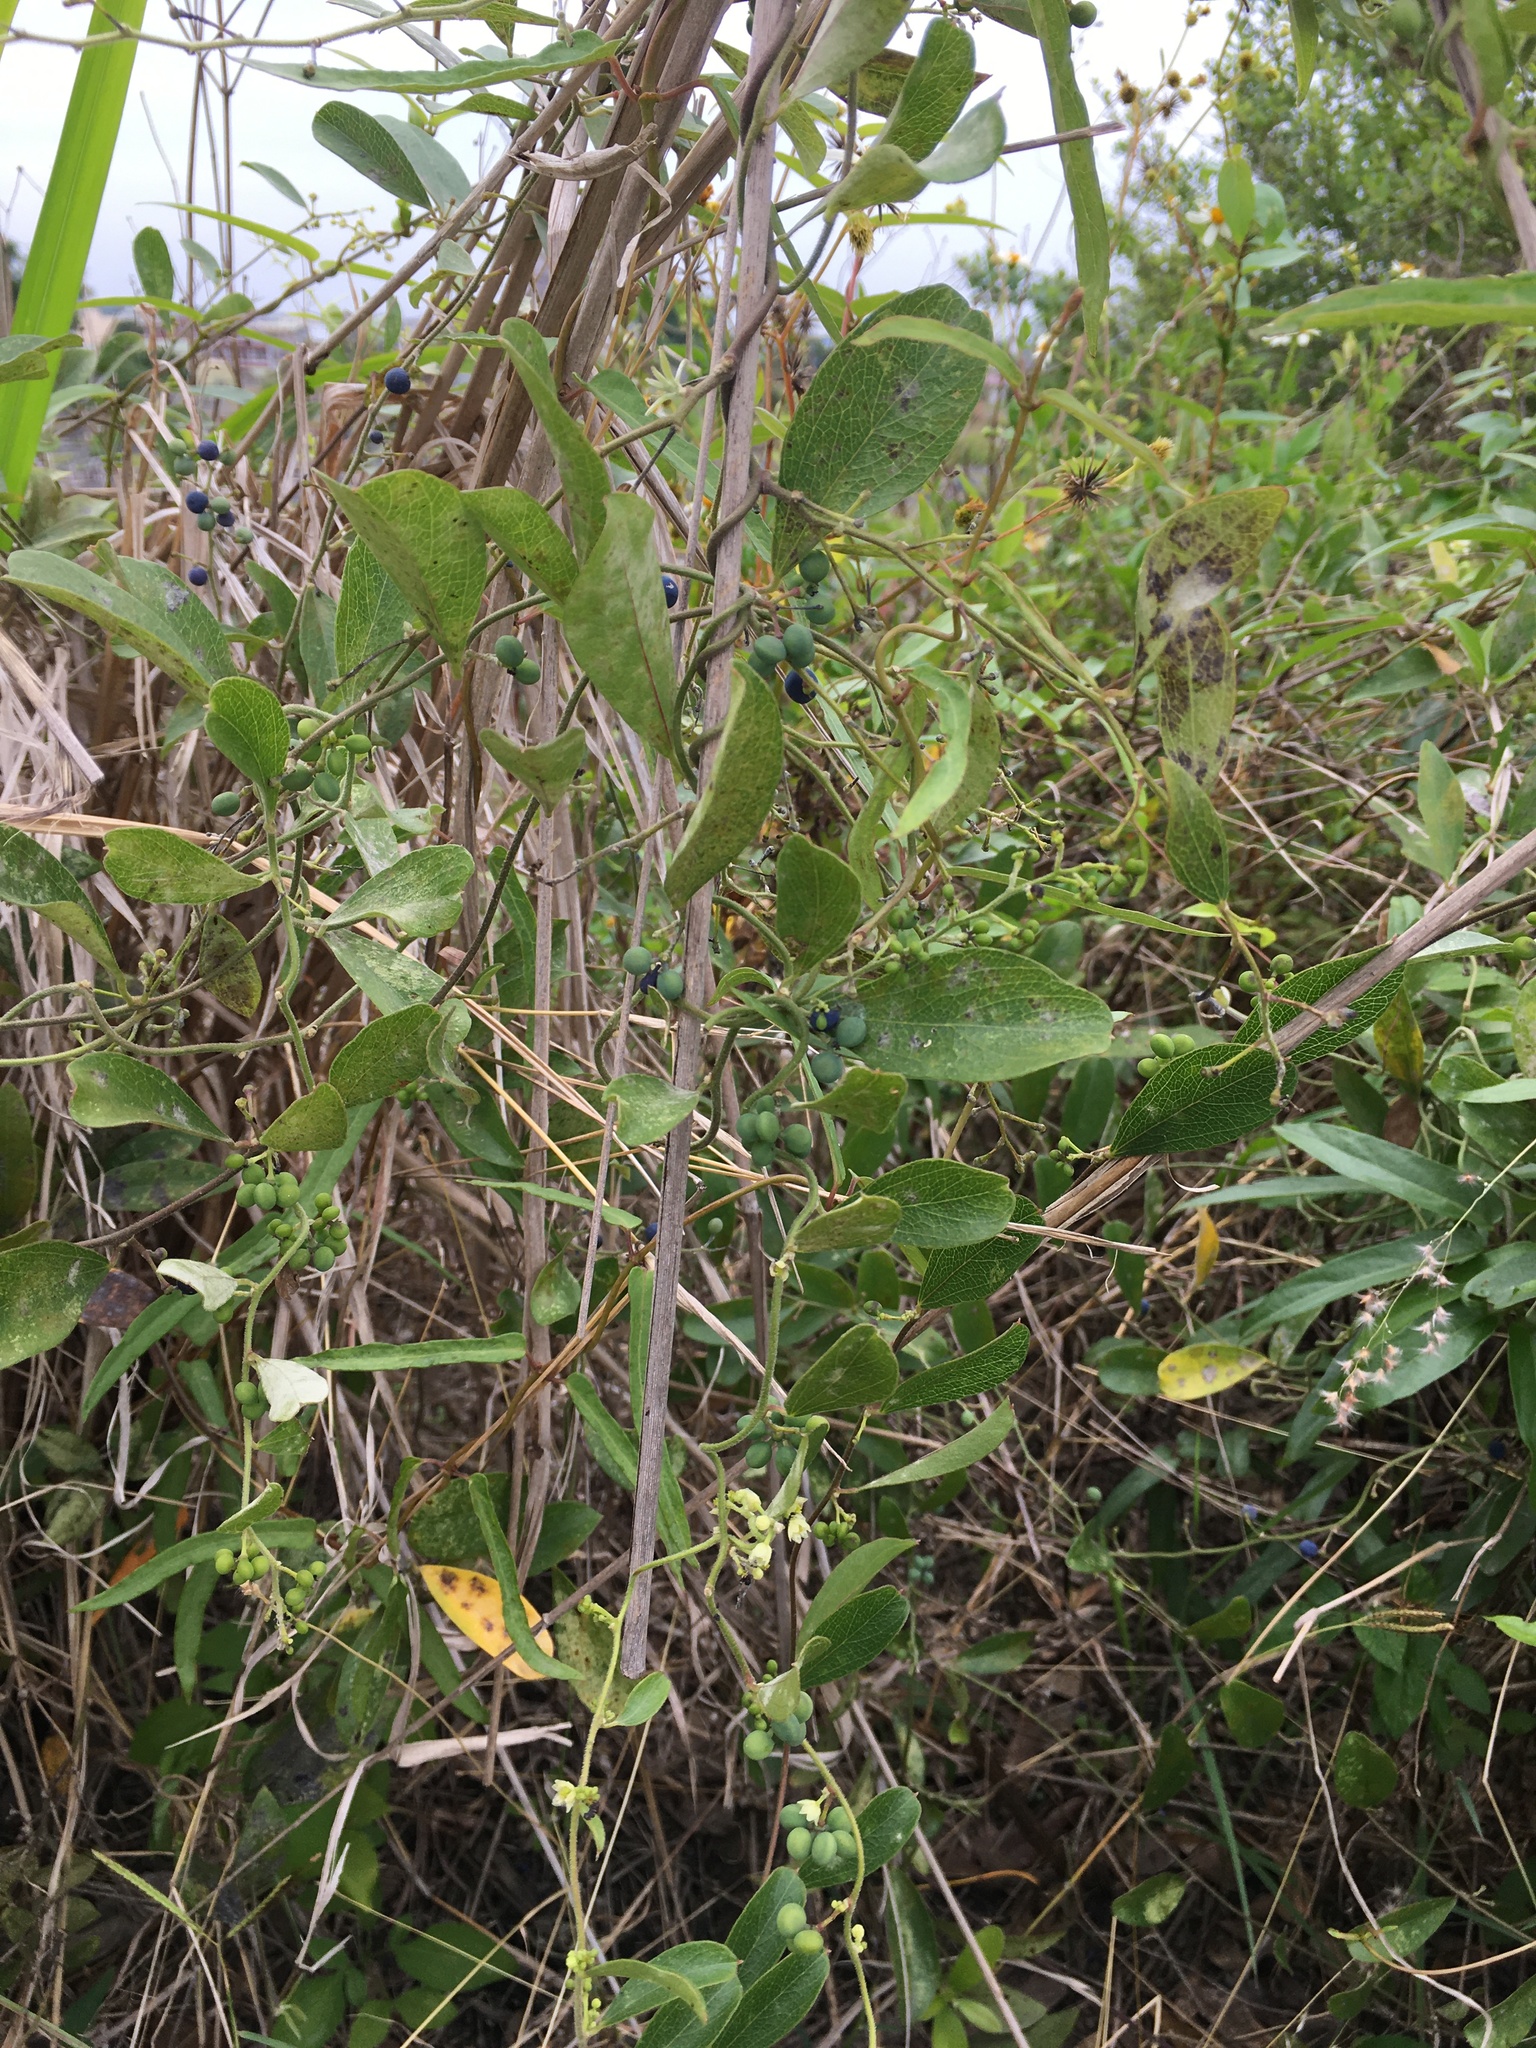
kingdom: Plantae
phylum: Tracheophyta
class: Magnoliopsida
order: Ranunculales
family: Menispermaceae
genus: Cocculus
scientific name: Cocculus orbiculatus
